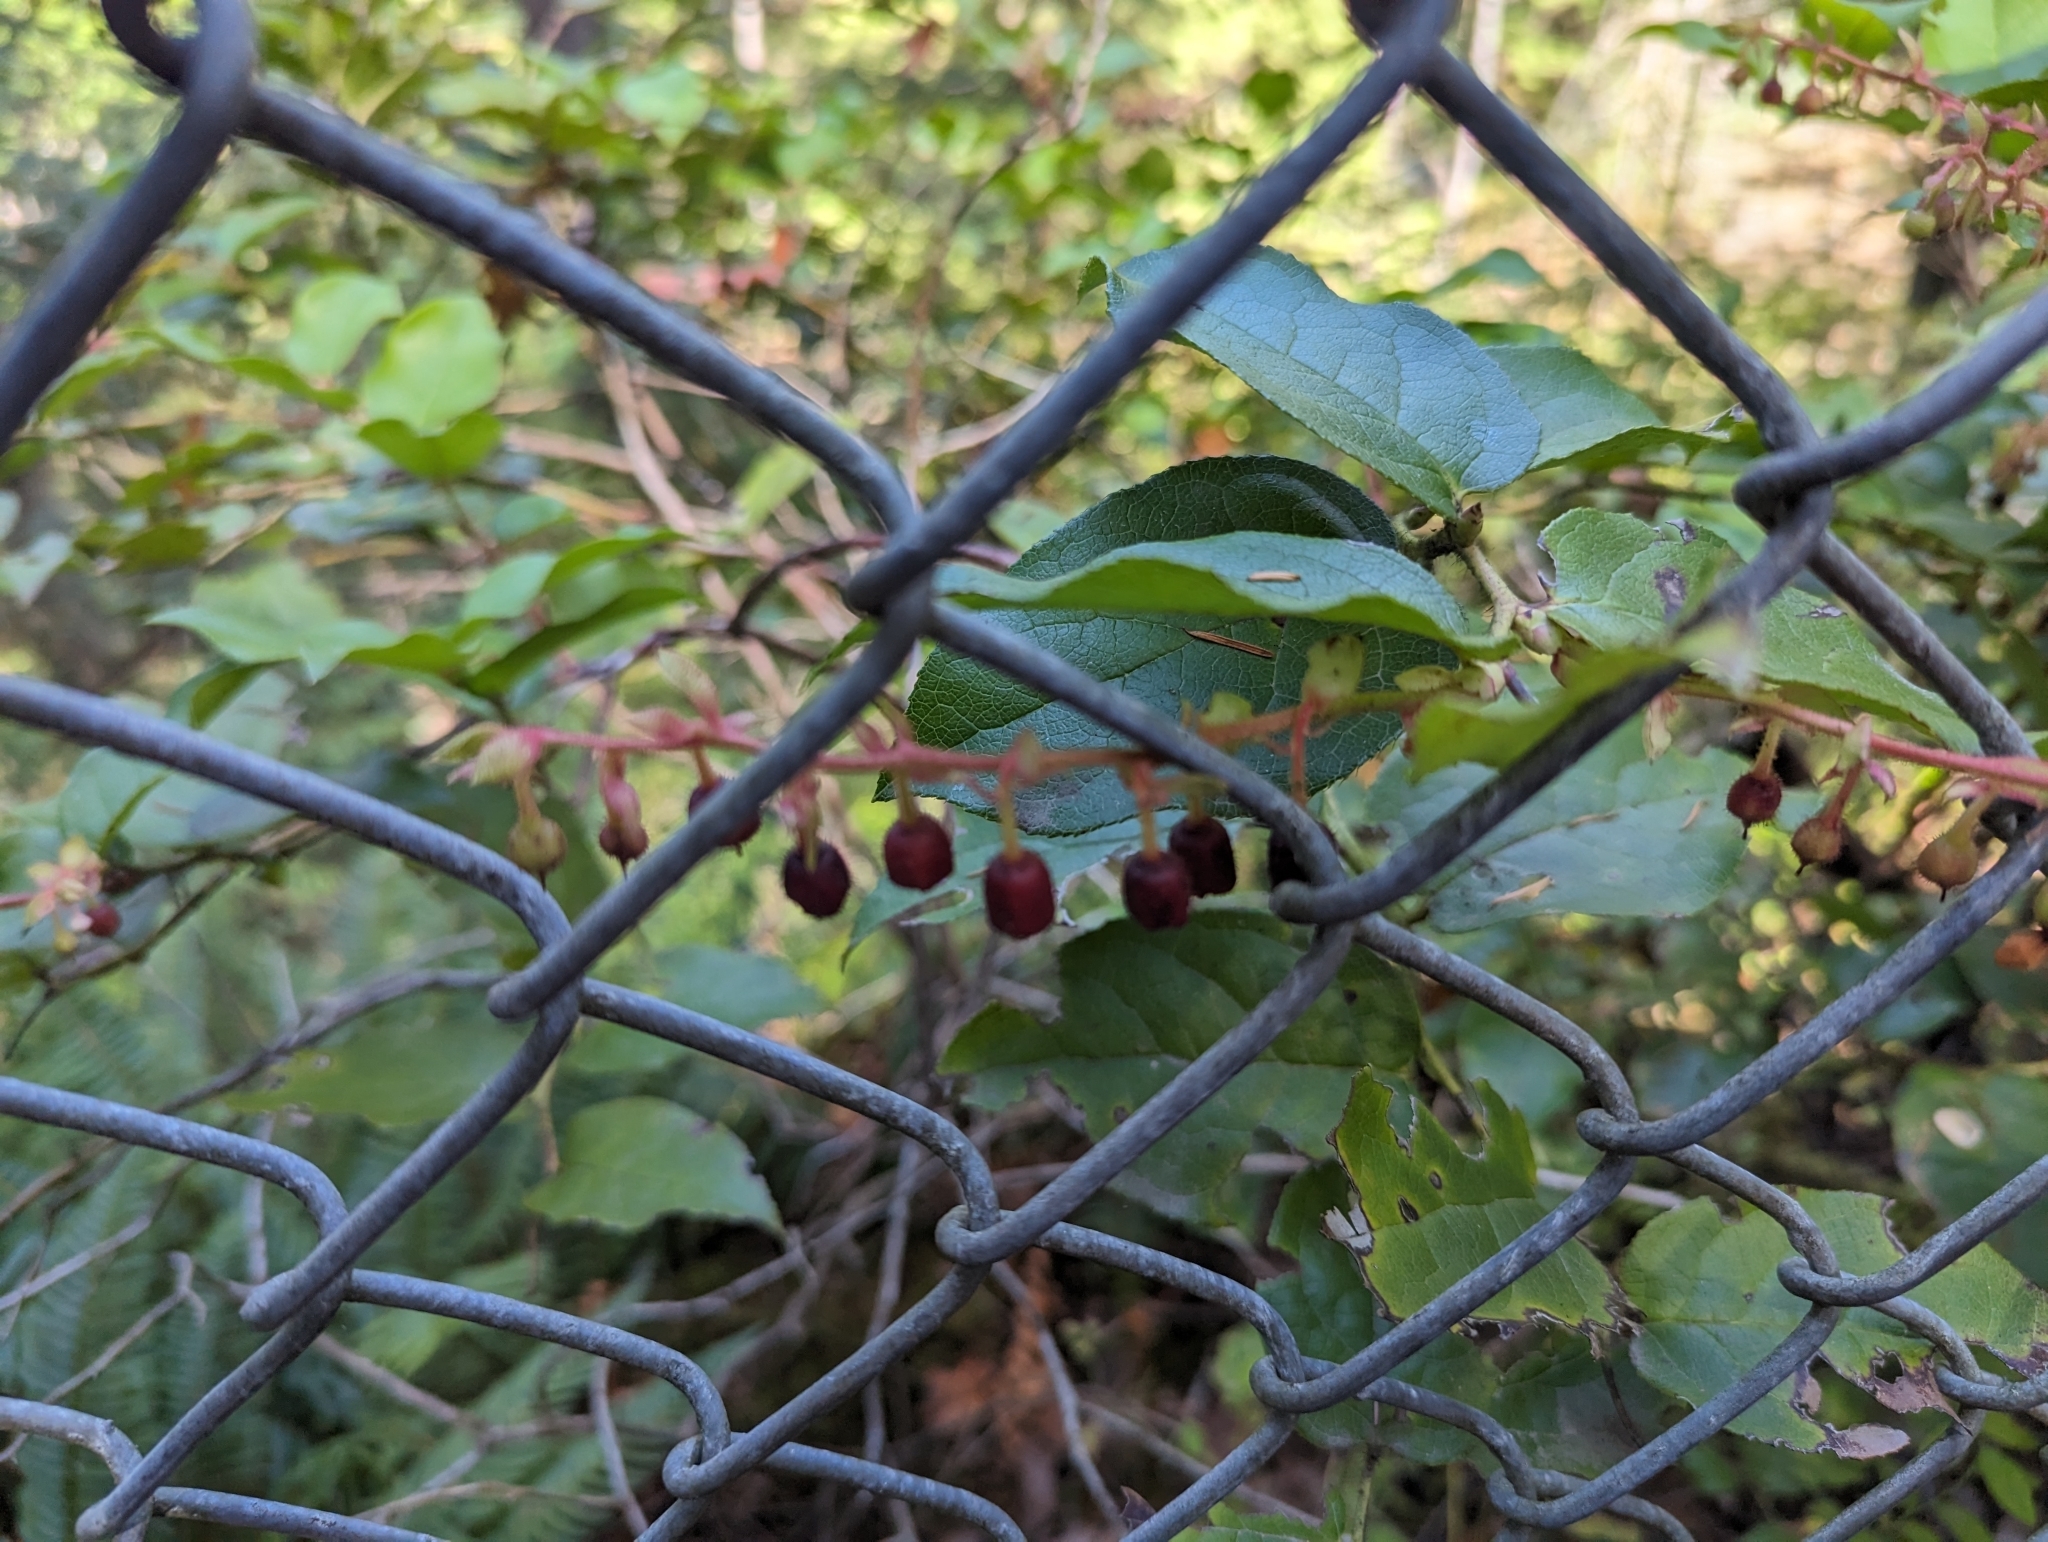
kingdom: Plantae
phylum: Tracheophyta
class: Magnoliopsida
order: Ericales
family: Ericaceae
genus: Gaultheria
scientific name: Gaultheria shallon
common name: Shallon
